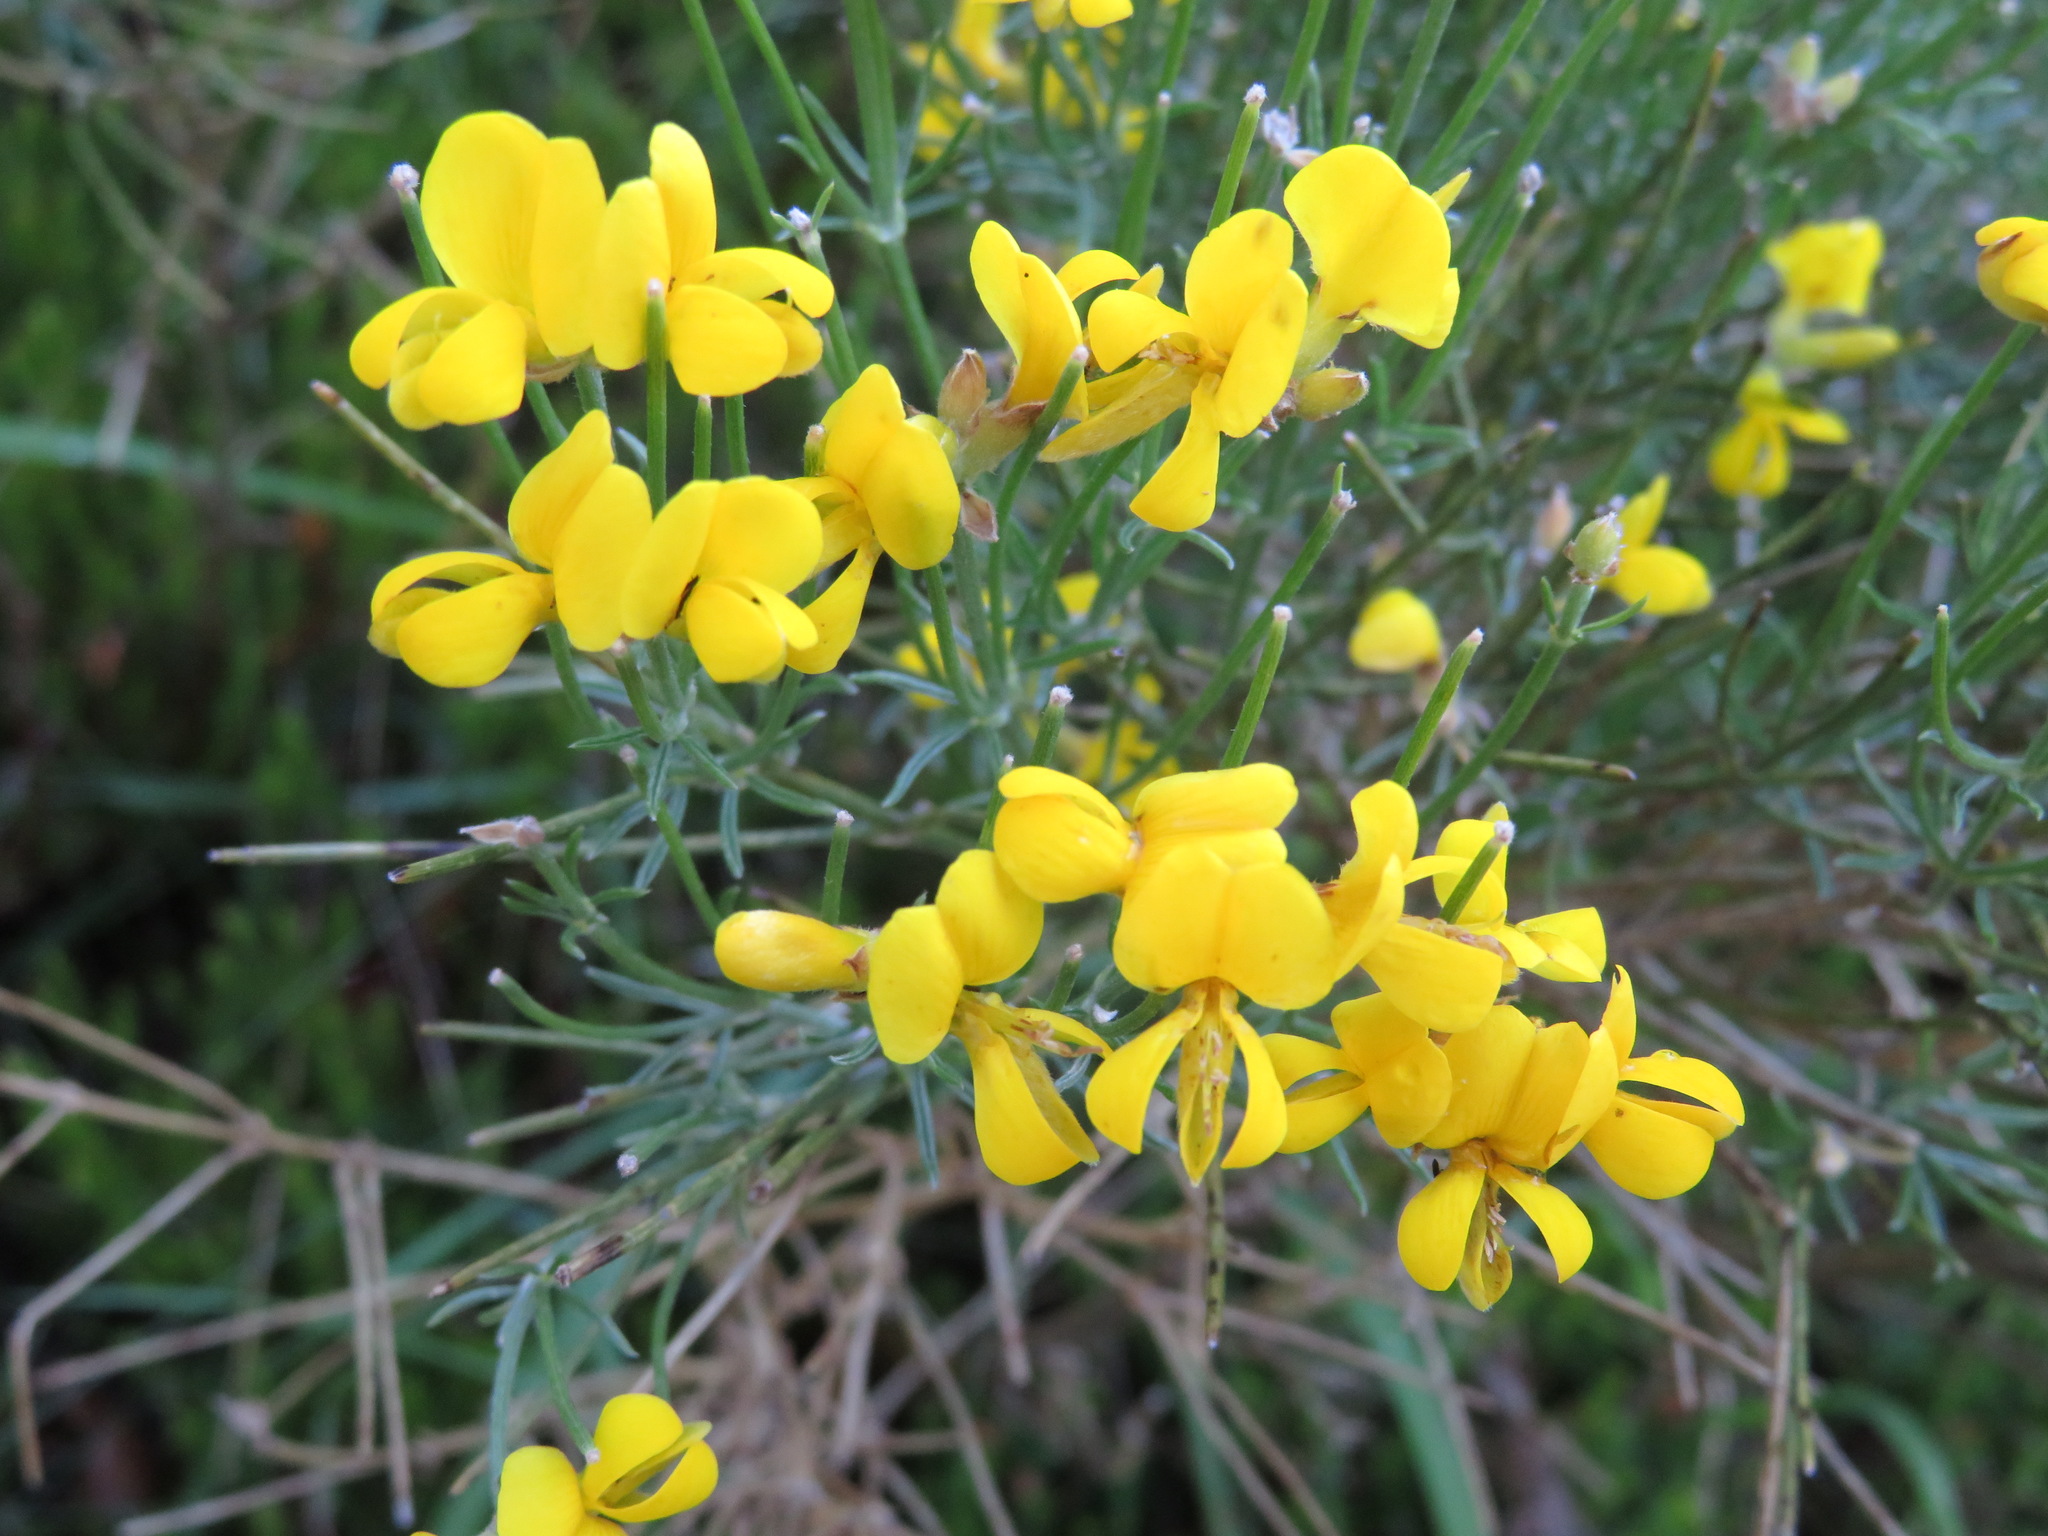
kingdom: Plantae
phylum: Tracheophyta
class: Magnoliopsida
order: Fabales
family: Fabaceae
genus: Genista
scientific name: Genista radiata
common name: Southern greenweed
